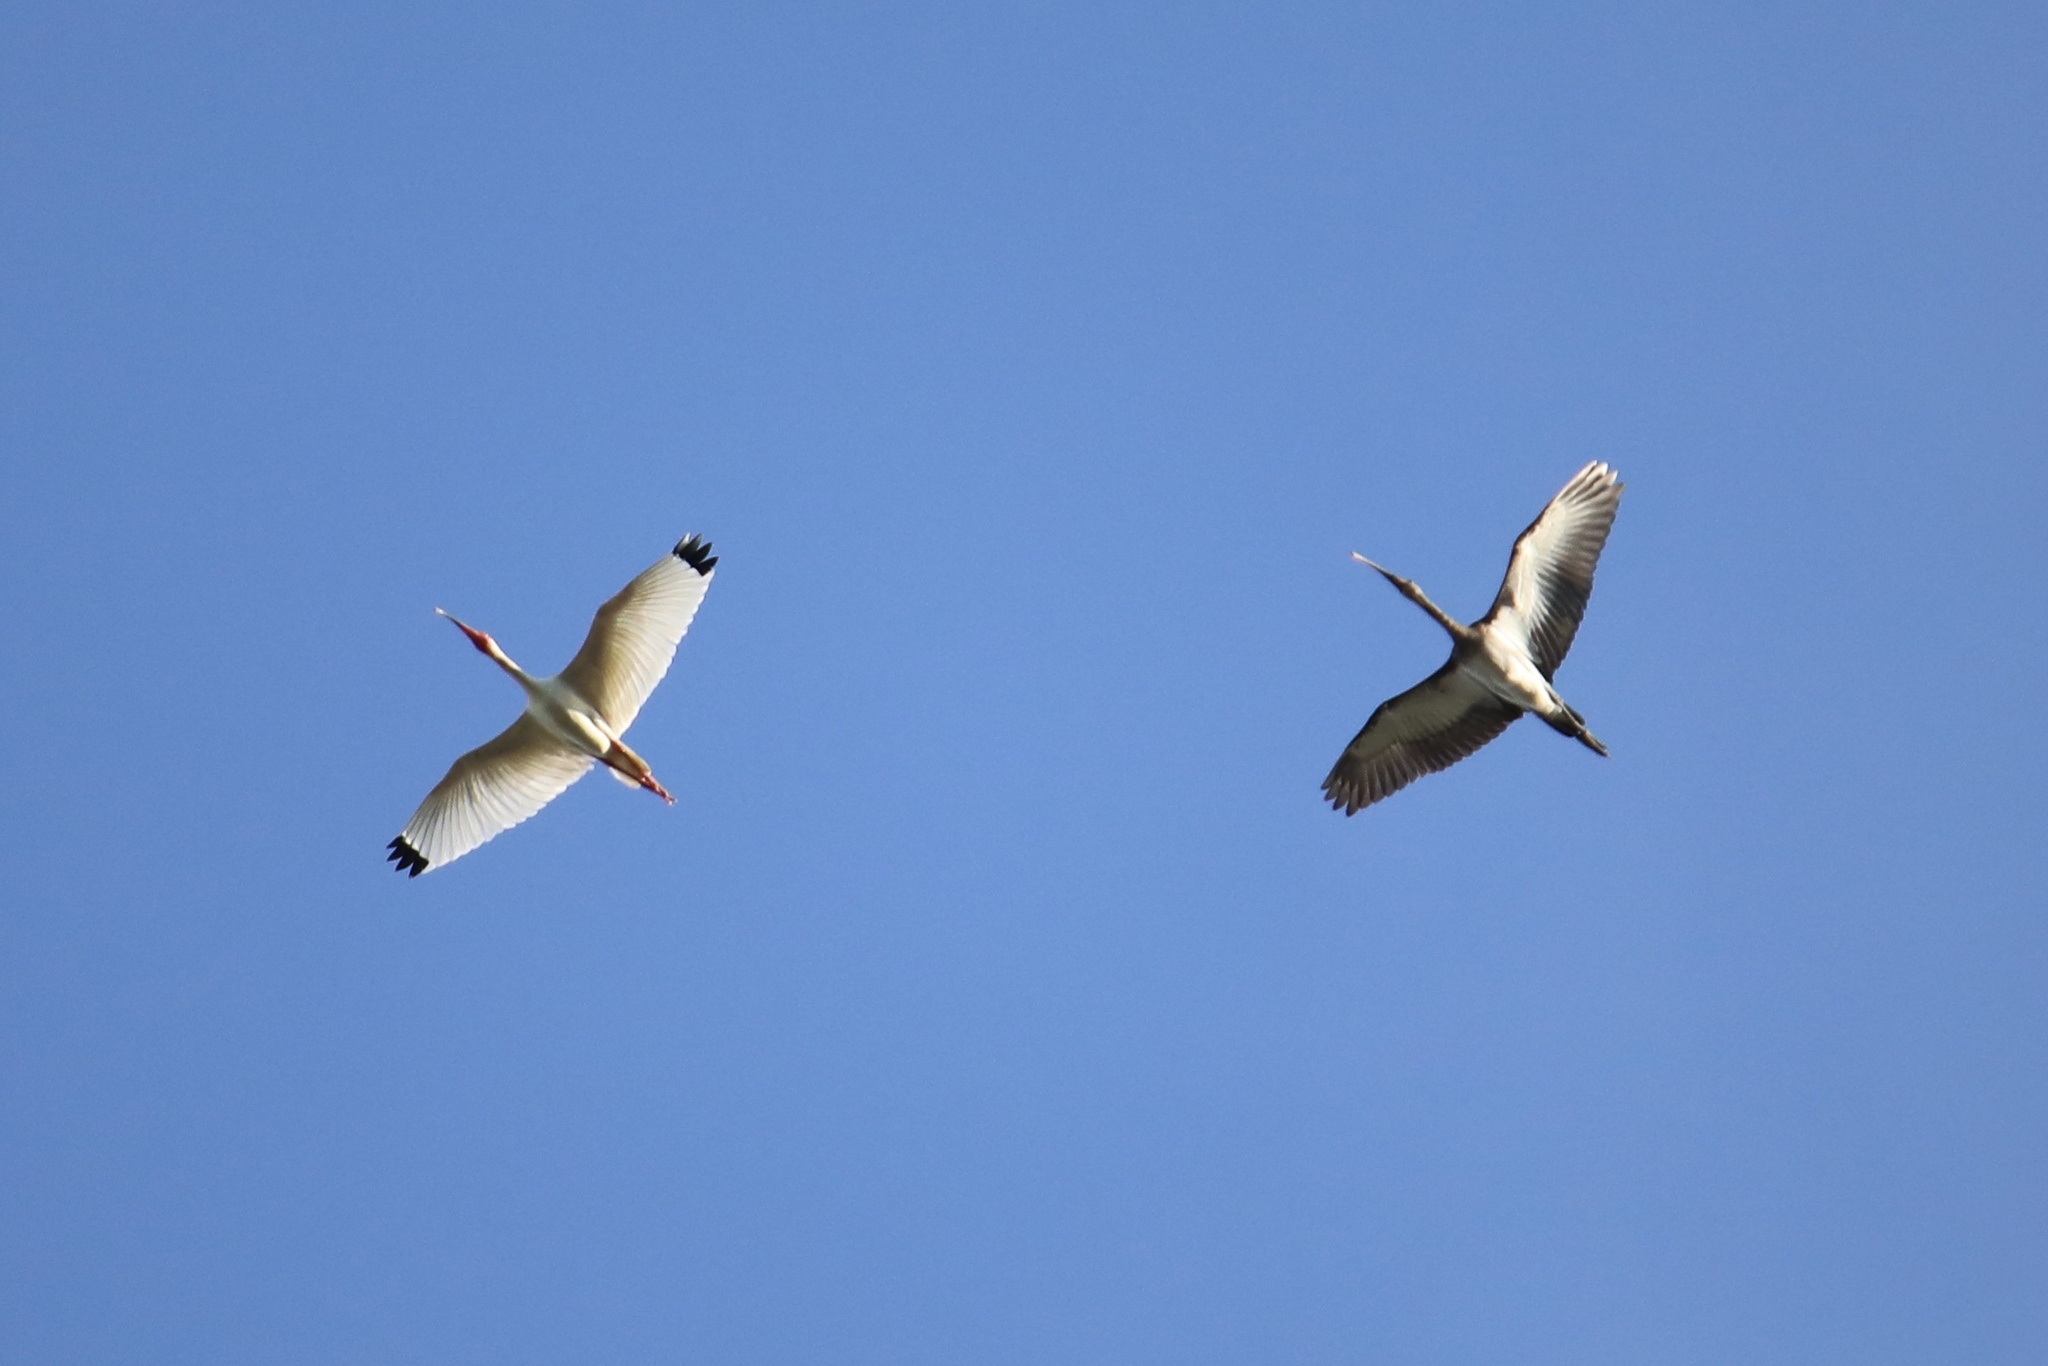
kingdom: Animalia
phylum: Chordata
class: Aves
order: Pelecaniformes
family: Threskiornithidae
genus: Eudocimus
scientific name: Eudocimus albus
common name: White ibis
